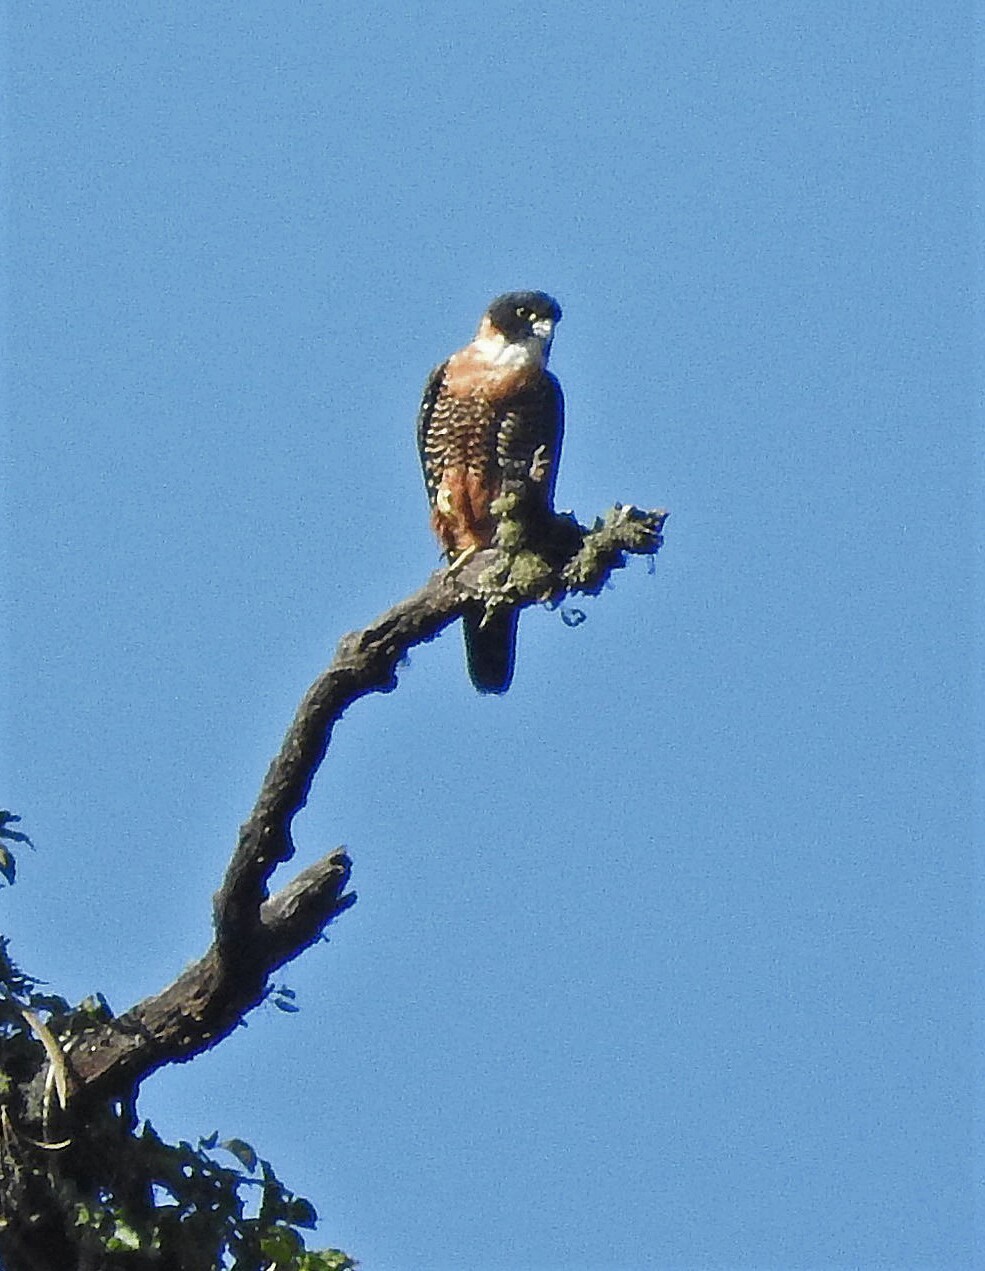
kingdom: Animalia
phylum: Chordata
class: Aves
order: Falconiformes
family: Falconidae
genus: Falco
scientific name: Falco deiroleucus
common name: Orange-breasted falcon
